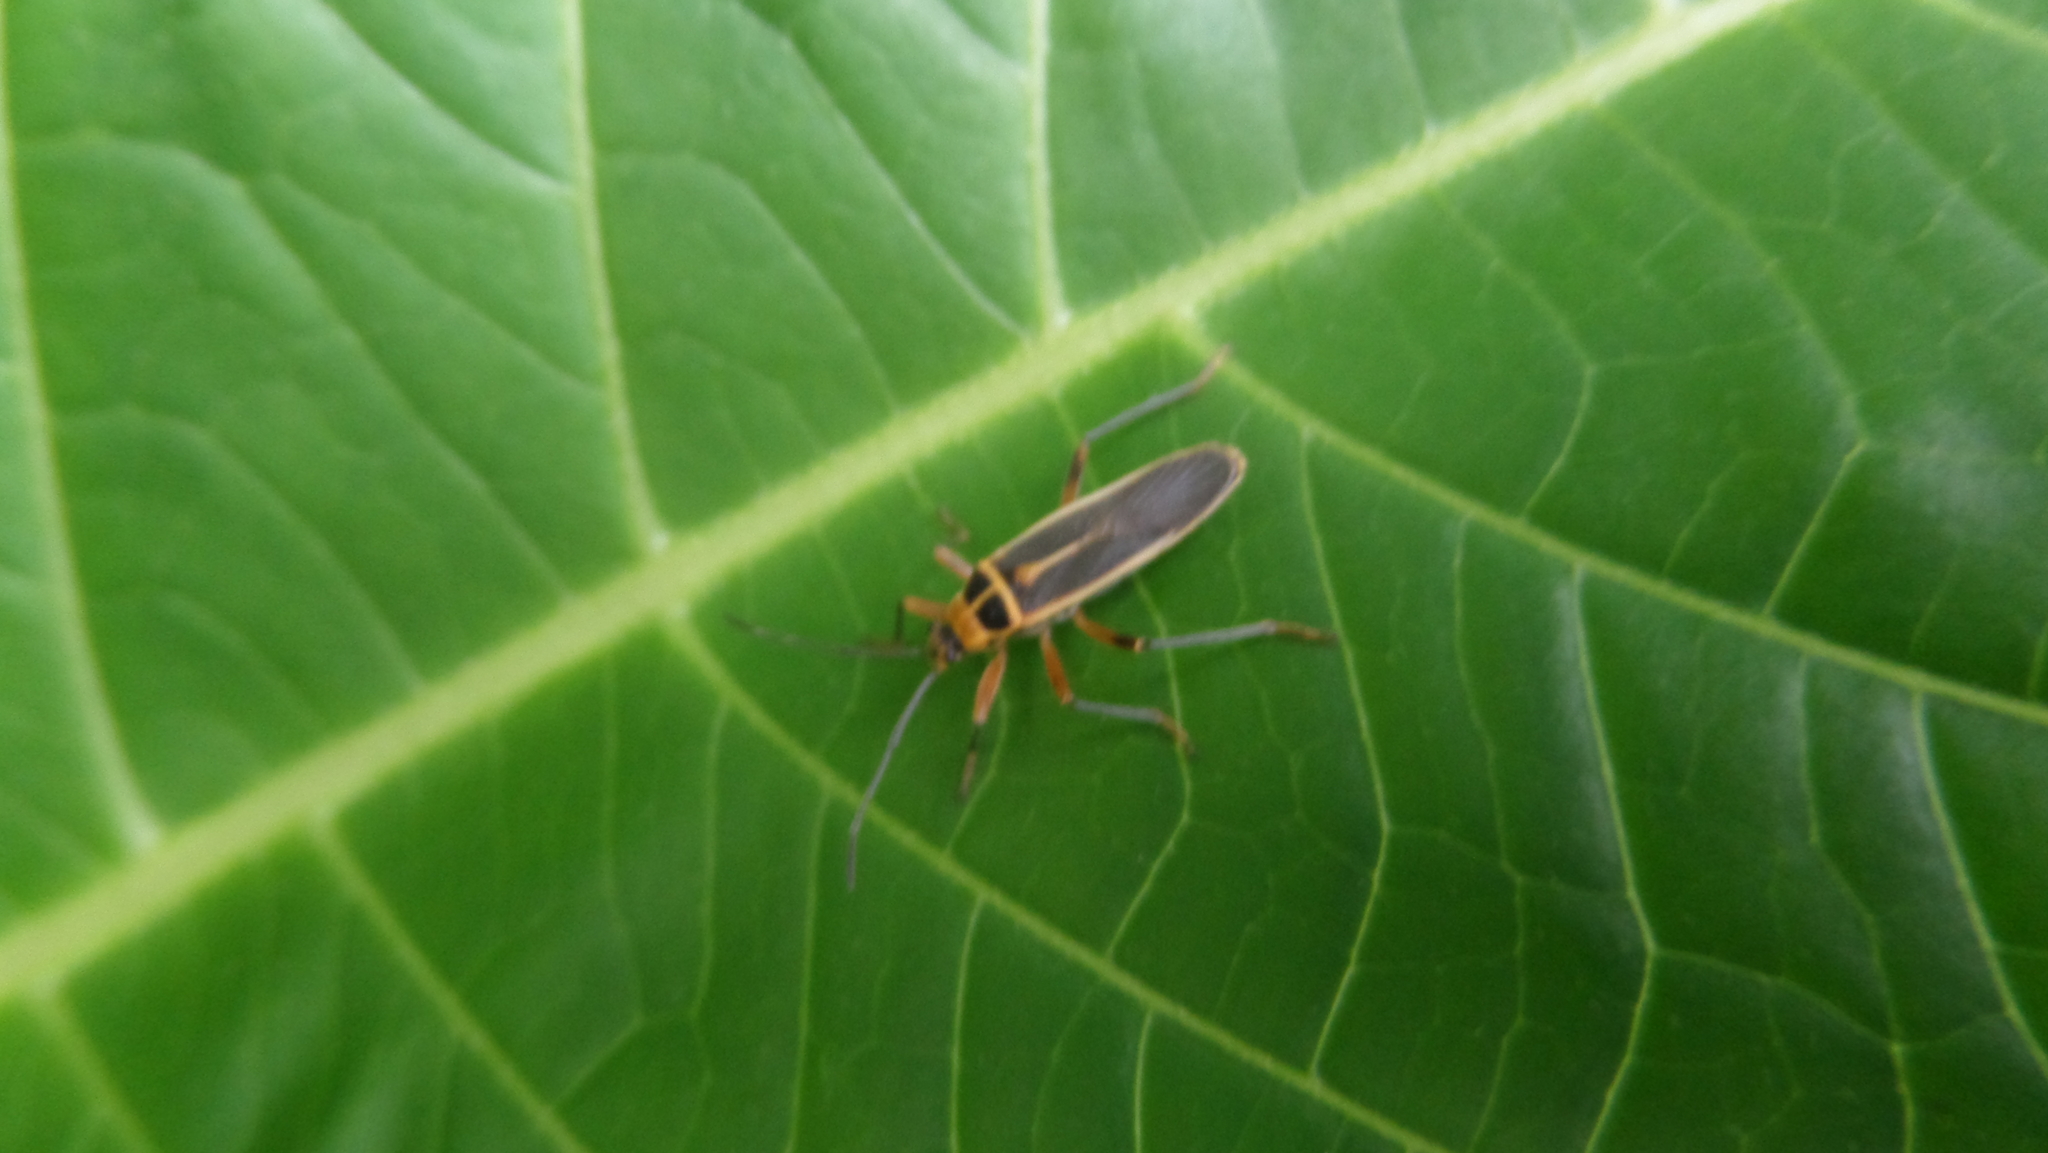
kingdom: Animalia
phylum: Arthropoda
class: Insecta
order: Hemiptera
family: Largidae
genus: Stenomacra
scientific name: Stenomacra marginella
